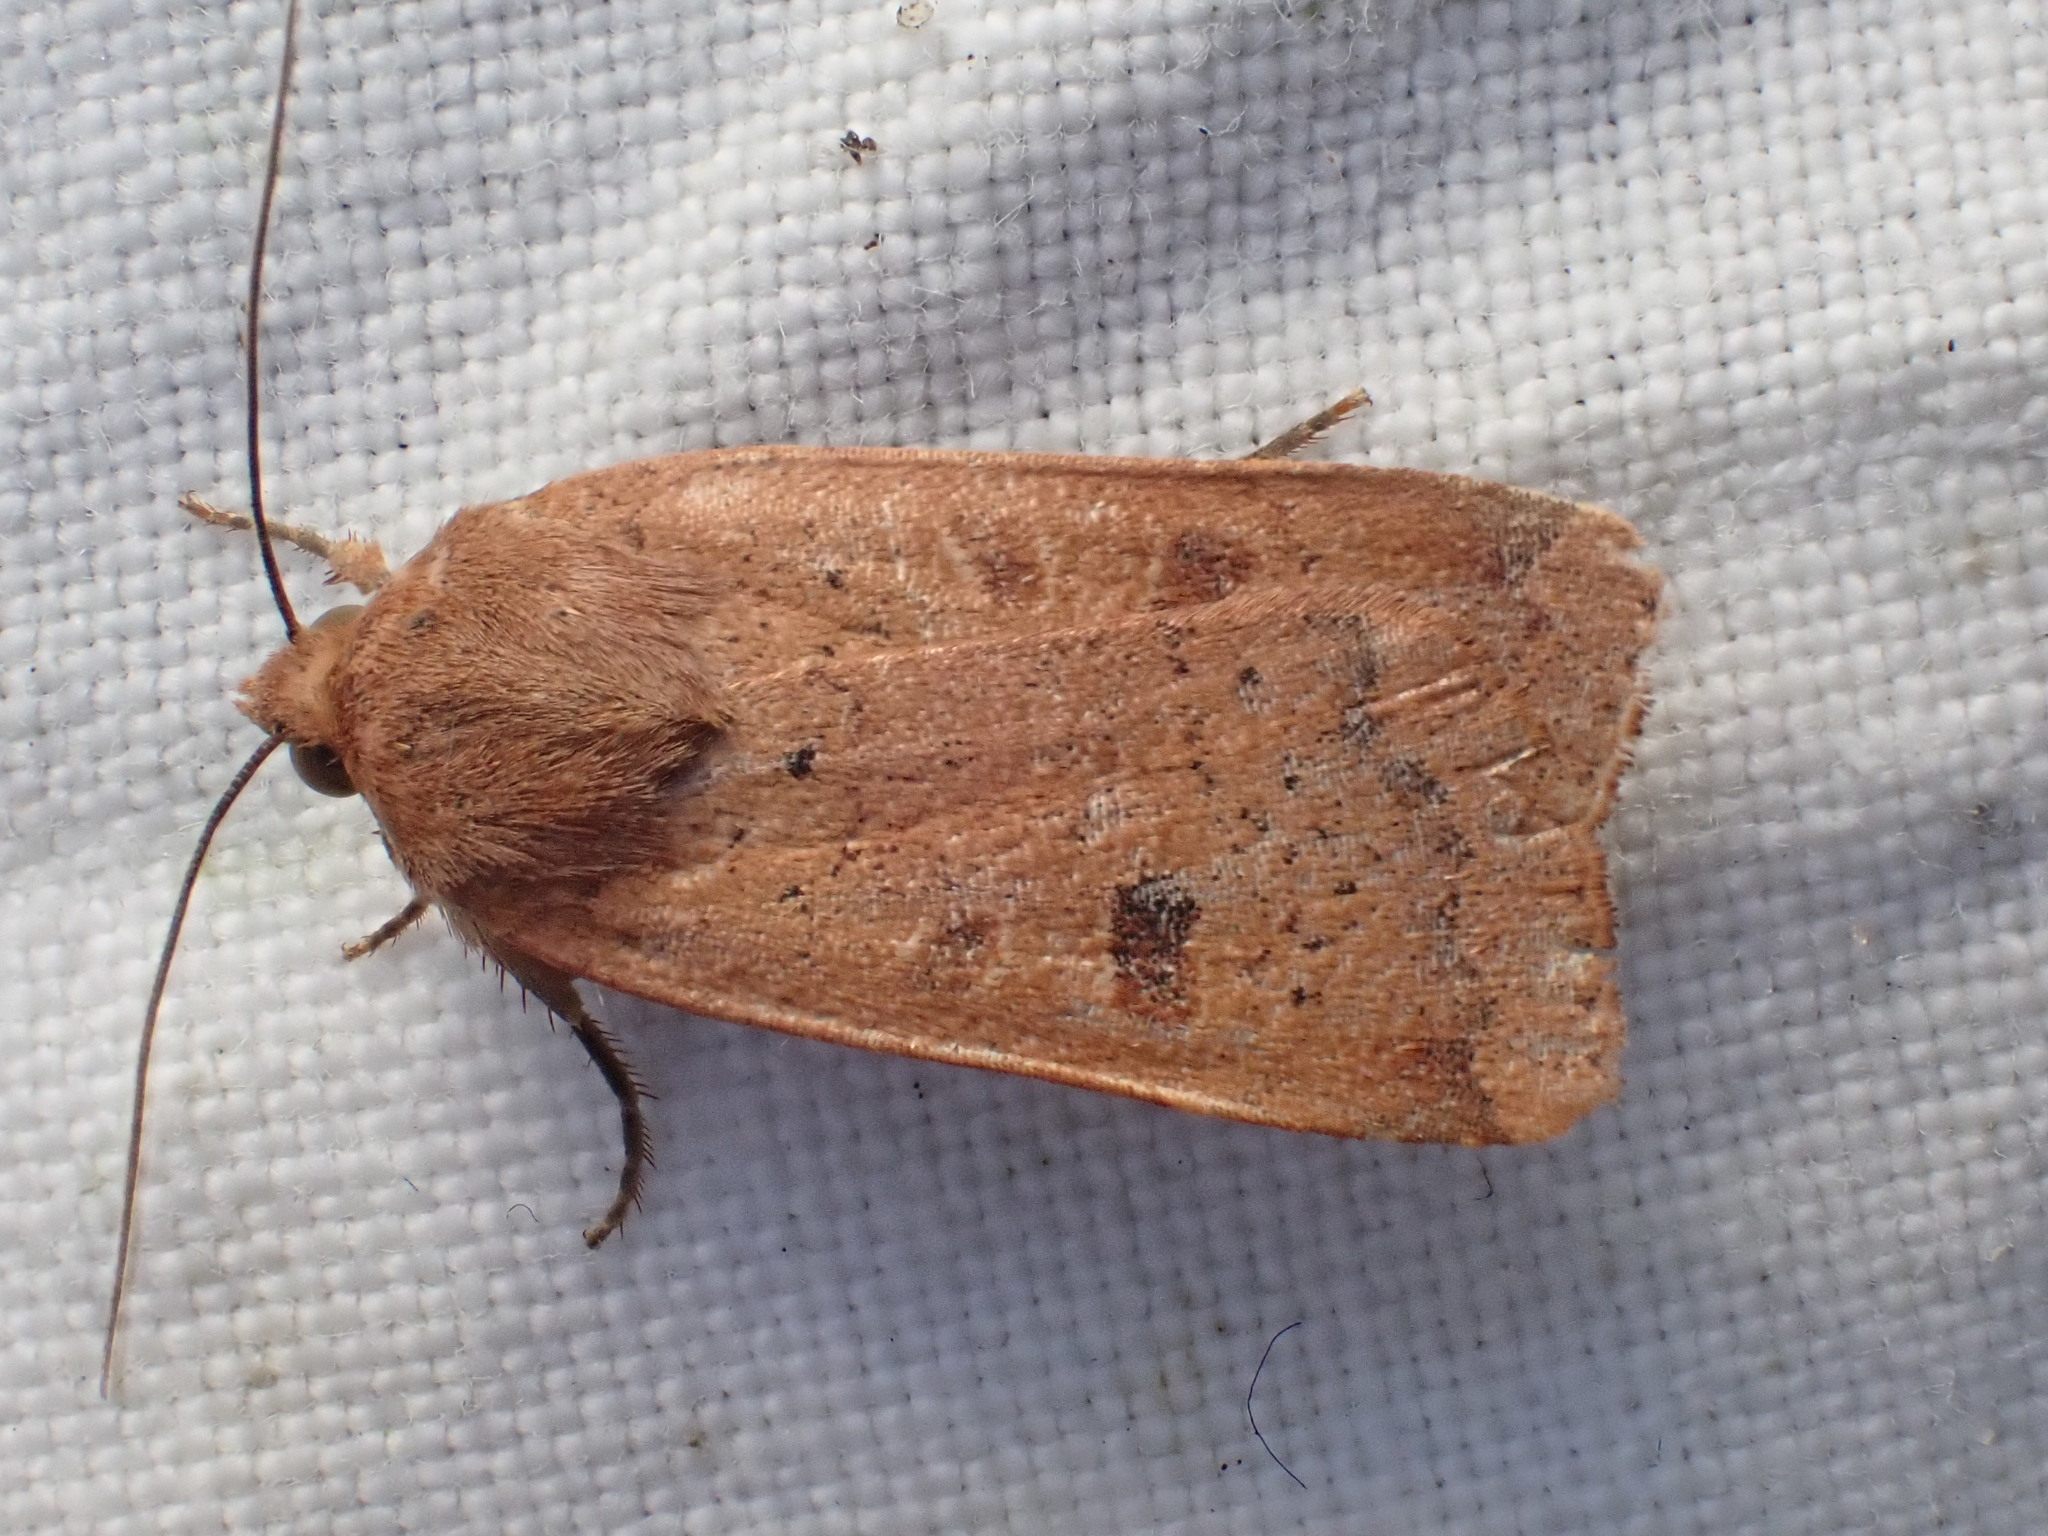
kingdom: Animalia
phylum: Arthropoda
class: Insecta
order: Lepidoptera
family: Noctuidae
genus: Noctua
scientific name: Noctua comes
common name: Lesser yellow underwing
